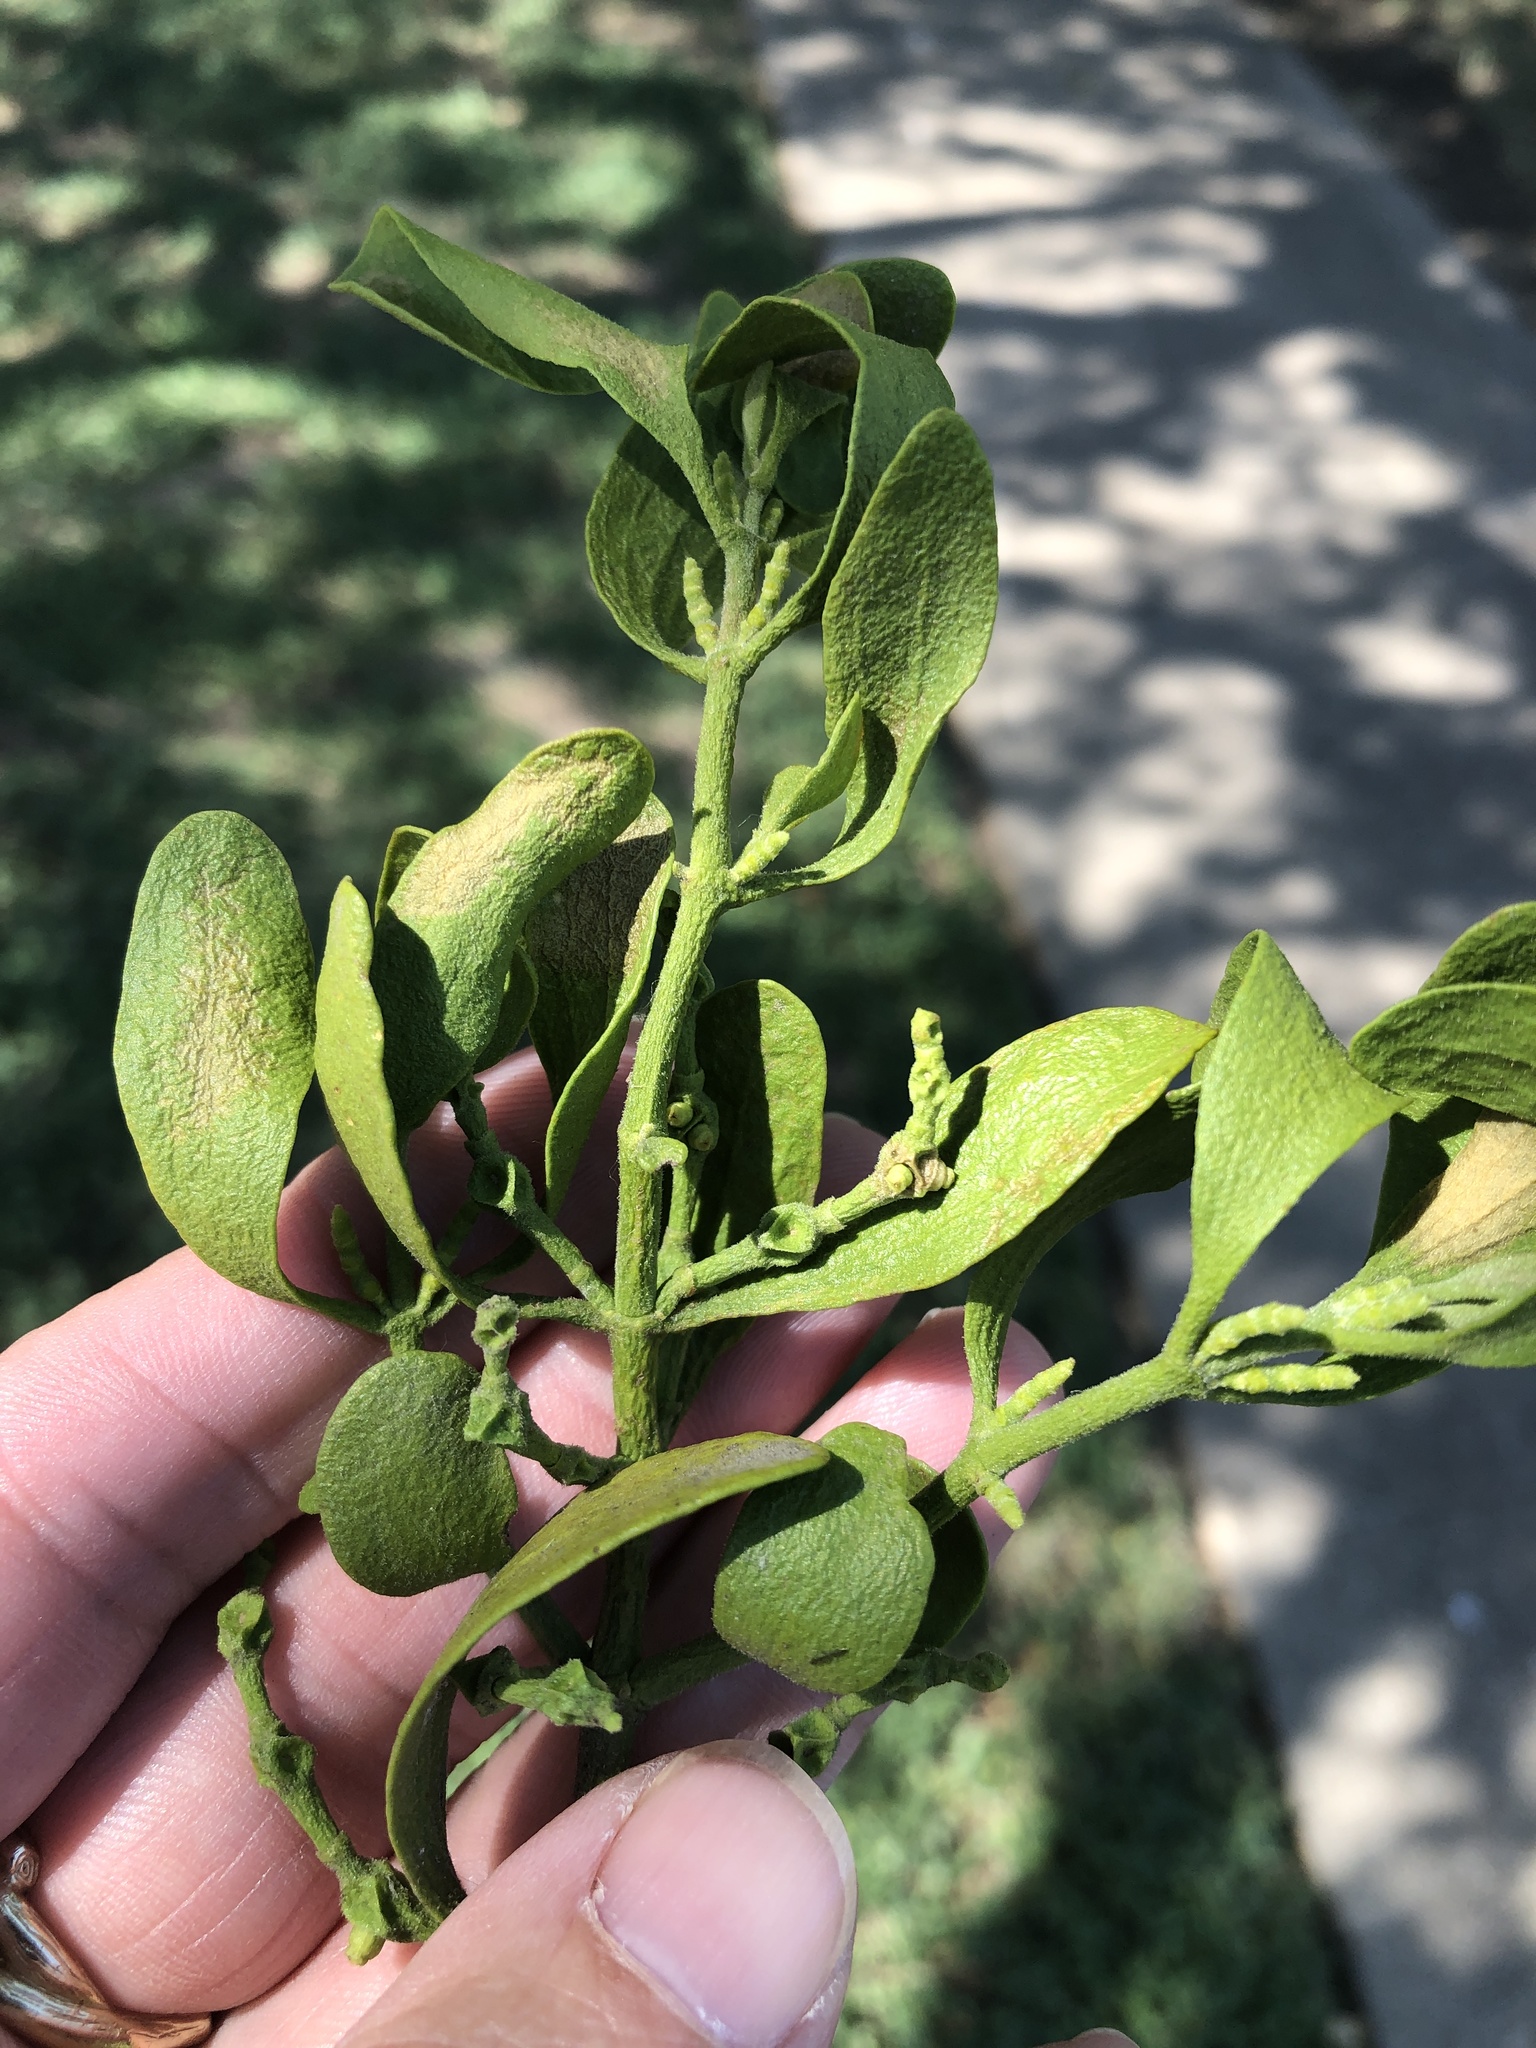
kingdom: Plantae
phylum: Tracheophyta
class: Magnoliopsida
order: Santalales
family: Viscaceae
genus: Phoradendron
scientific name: Phoradendron leucarpum
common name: Pacific mistletoe
